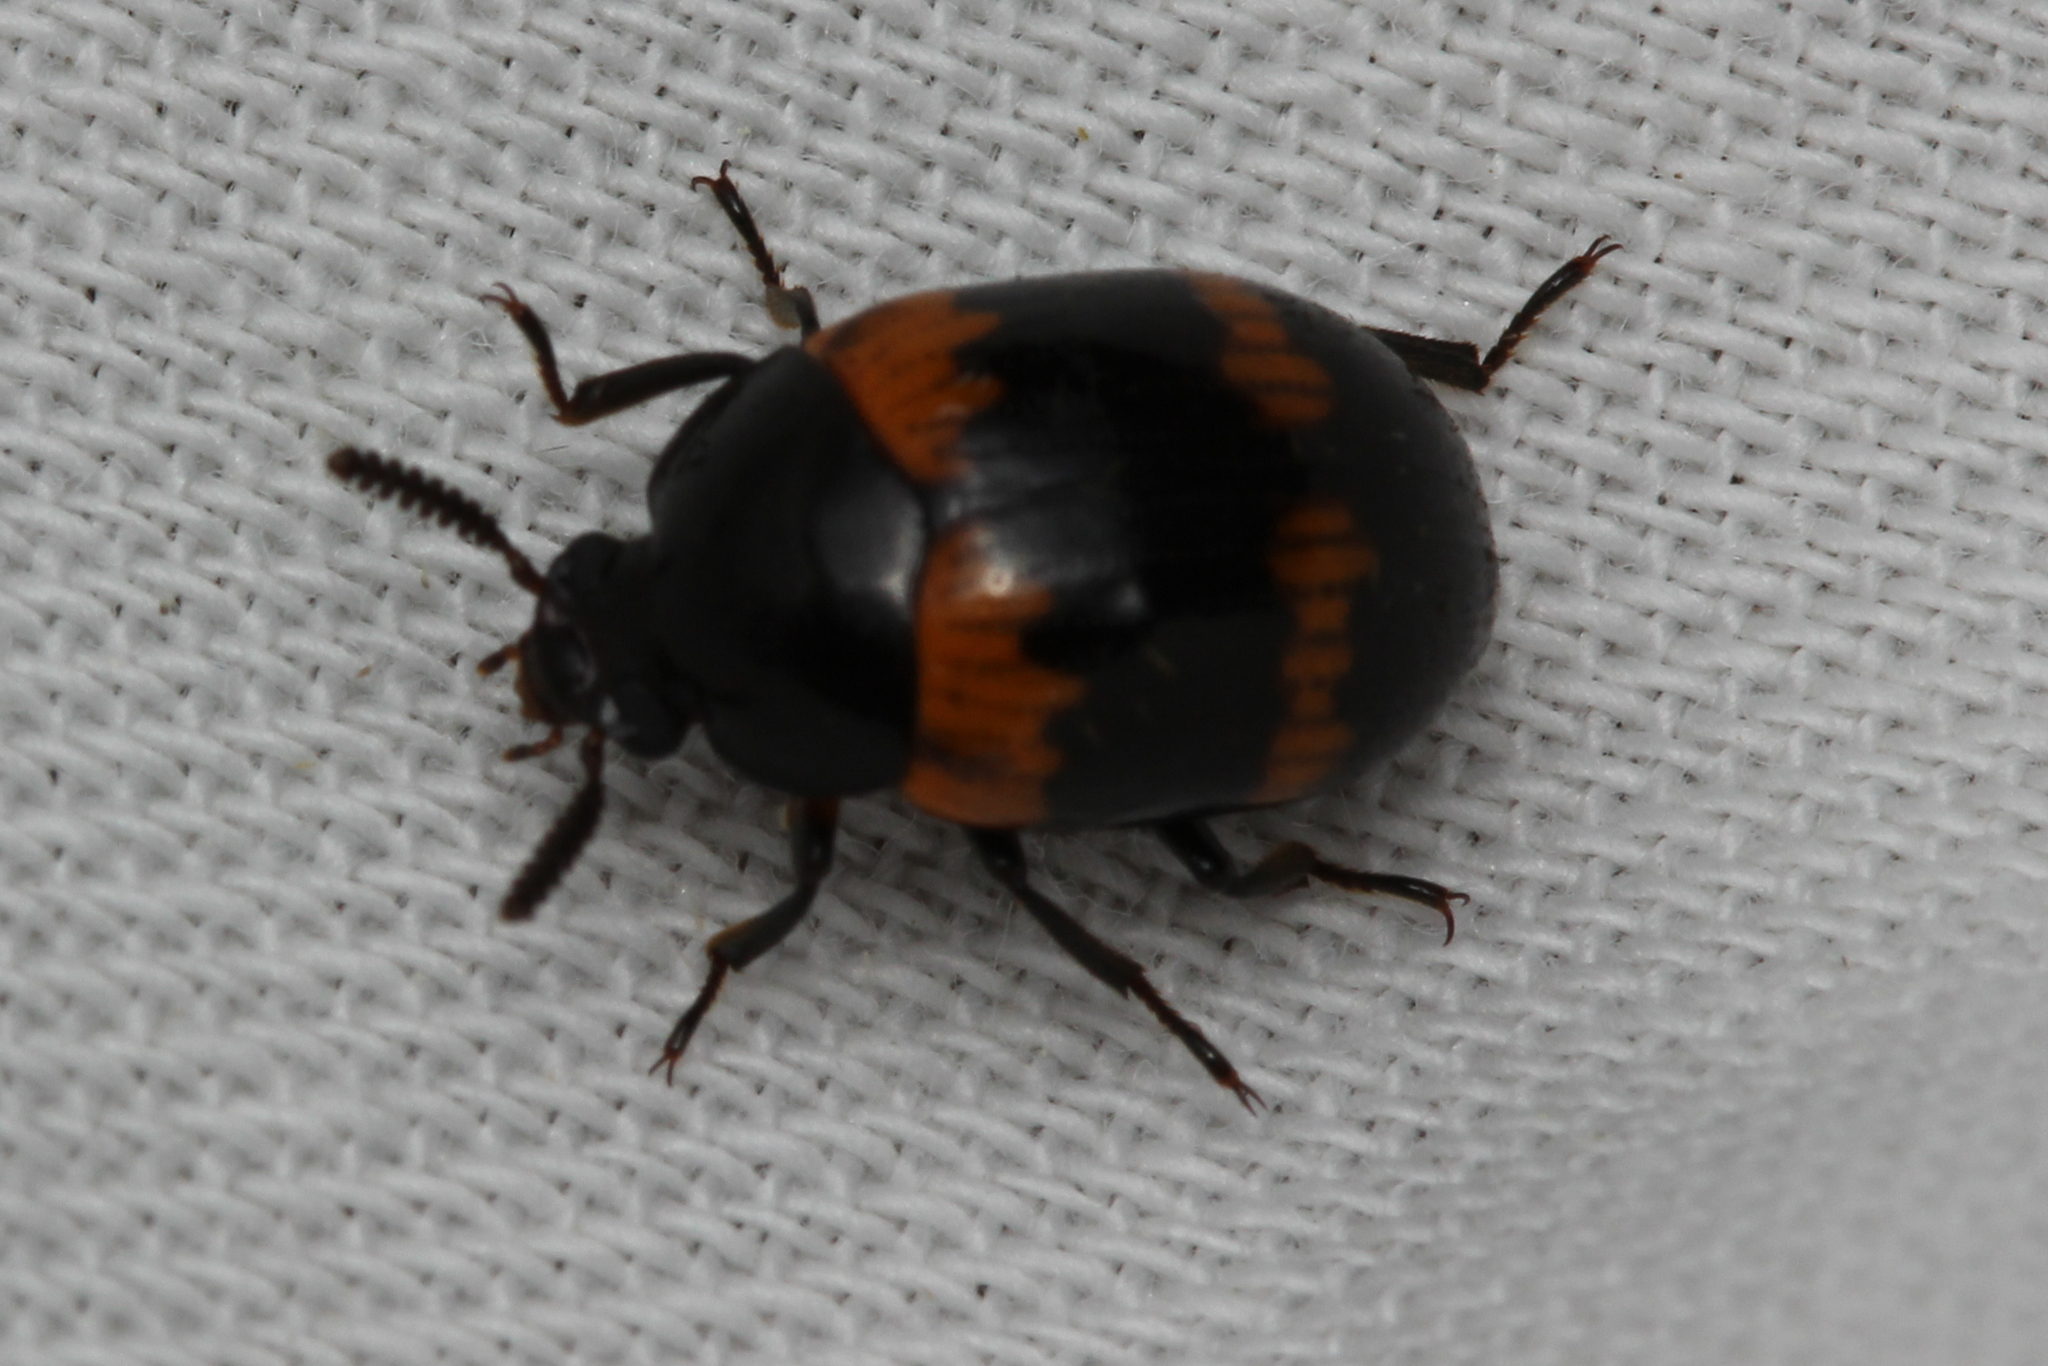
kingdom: Animalia
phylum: Arthropoda
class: Insecta
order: Coleoptera
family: Tenebrionidae
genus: Diaperis
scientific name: Diaperis boleti
